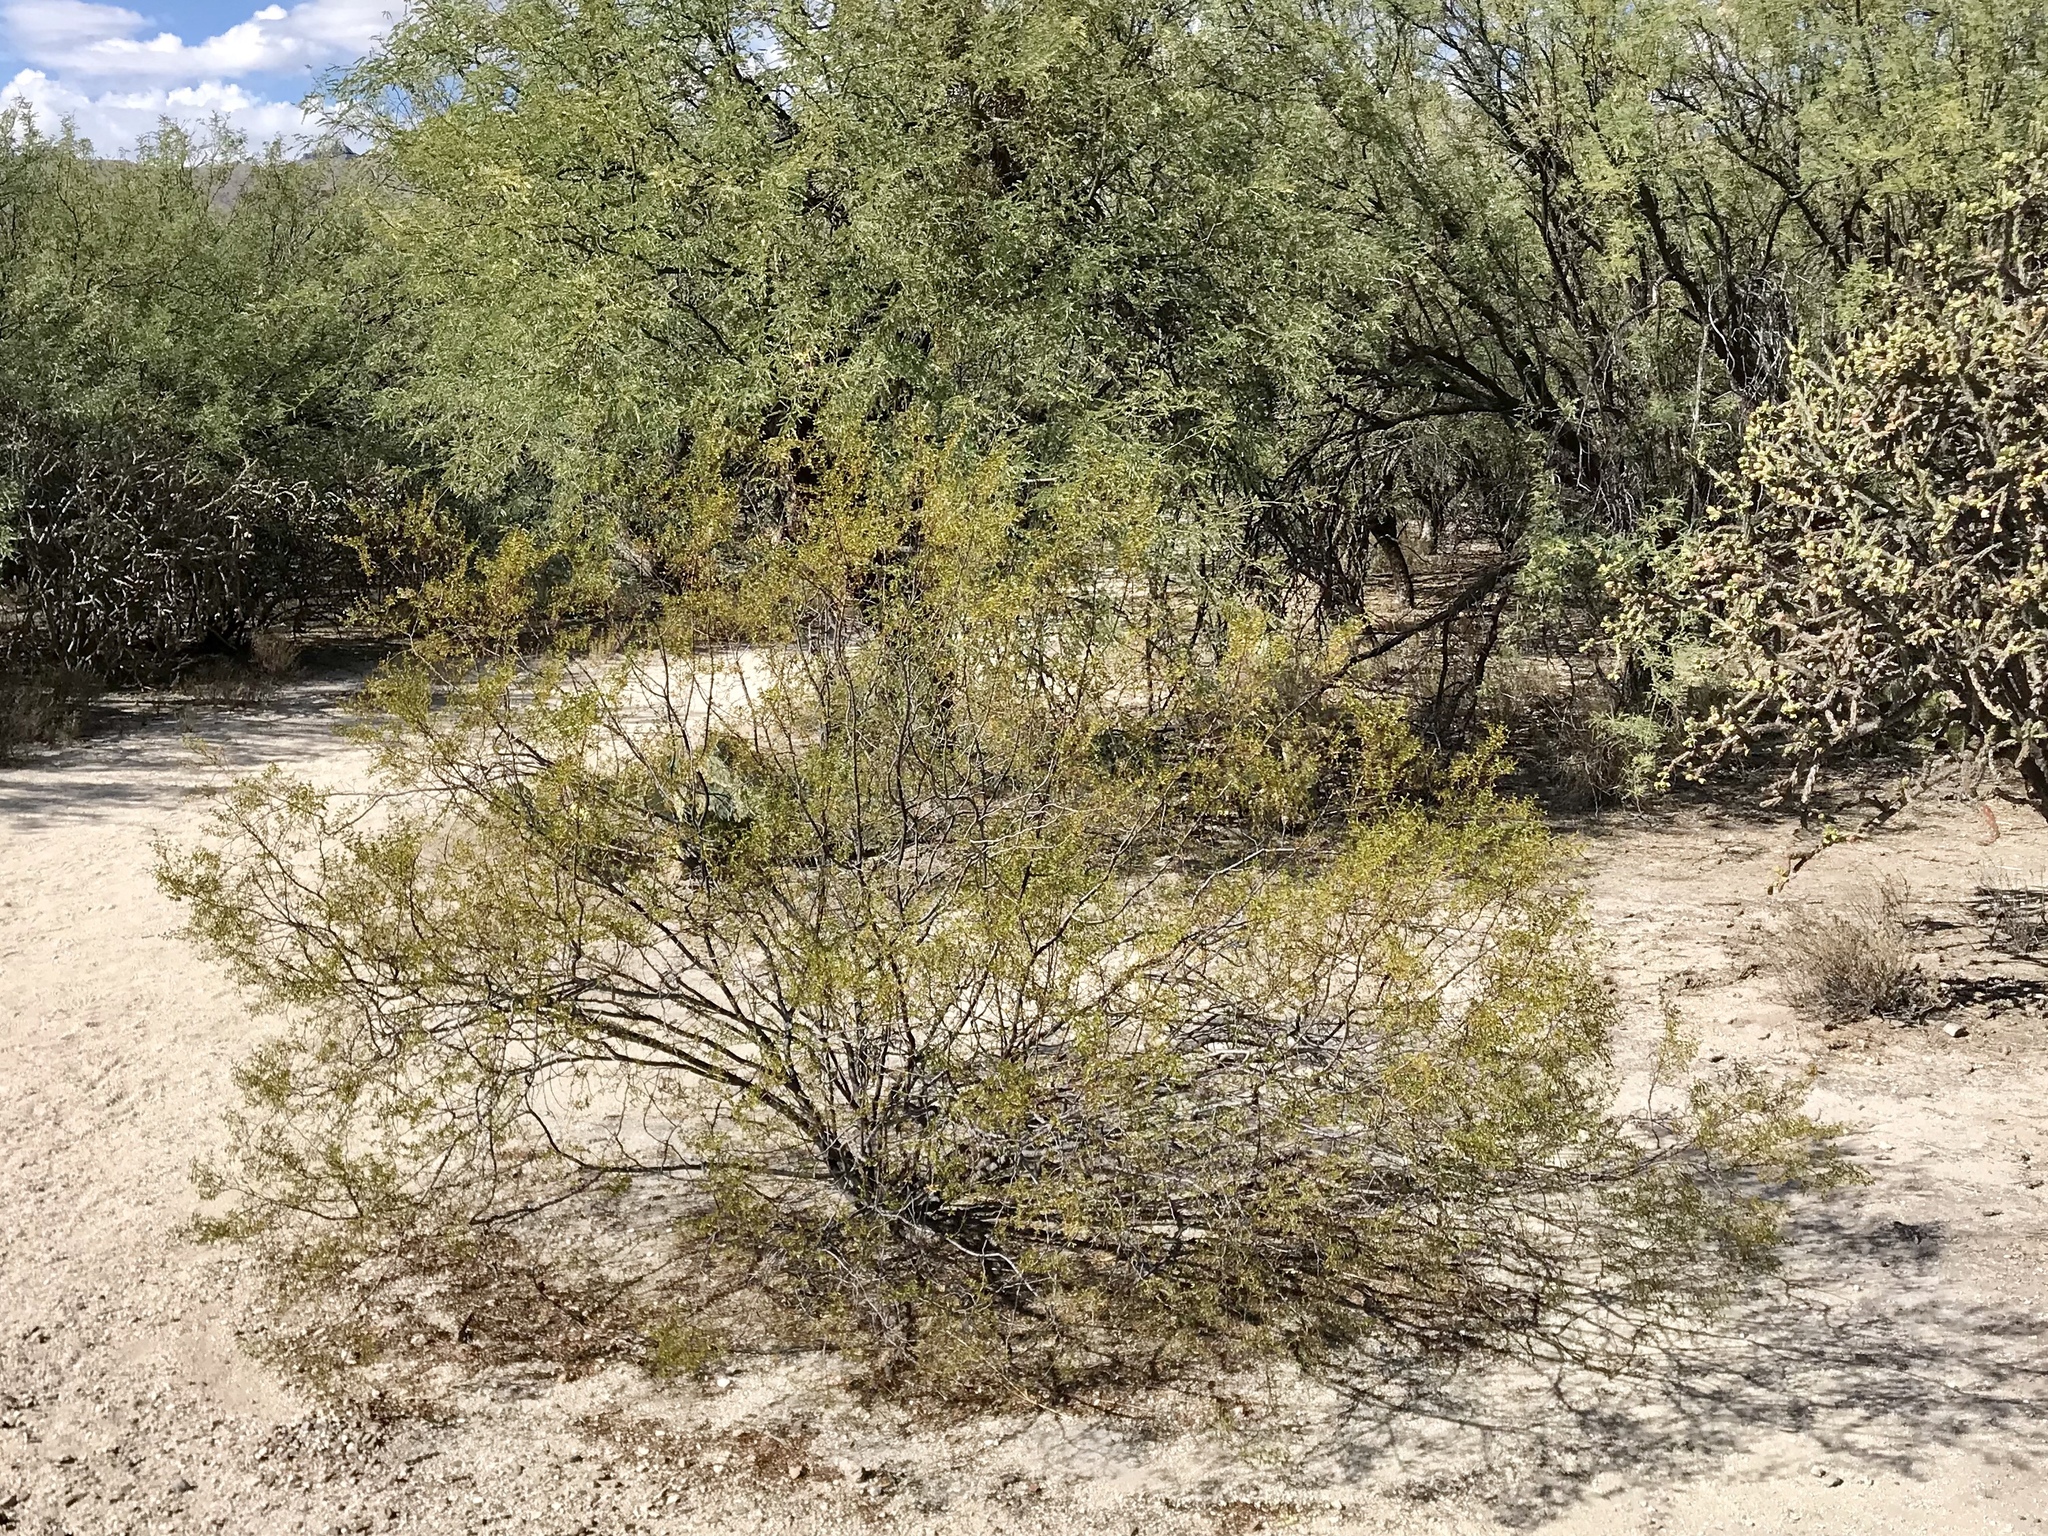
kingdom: Plantae
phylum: Tracheophyta
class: Magnoliopsida
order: Zygophyllales
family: Zygophyllaceae
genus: Larrea
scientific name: Larrea tridentata
